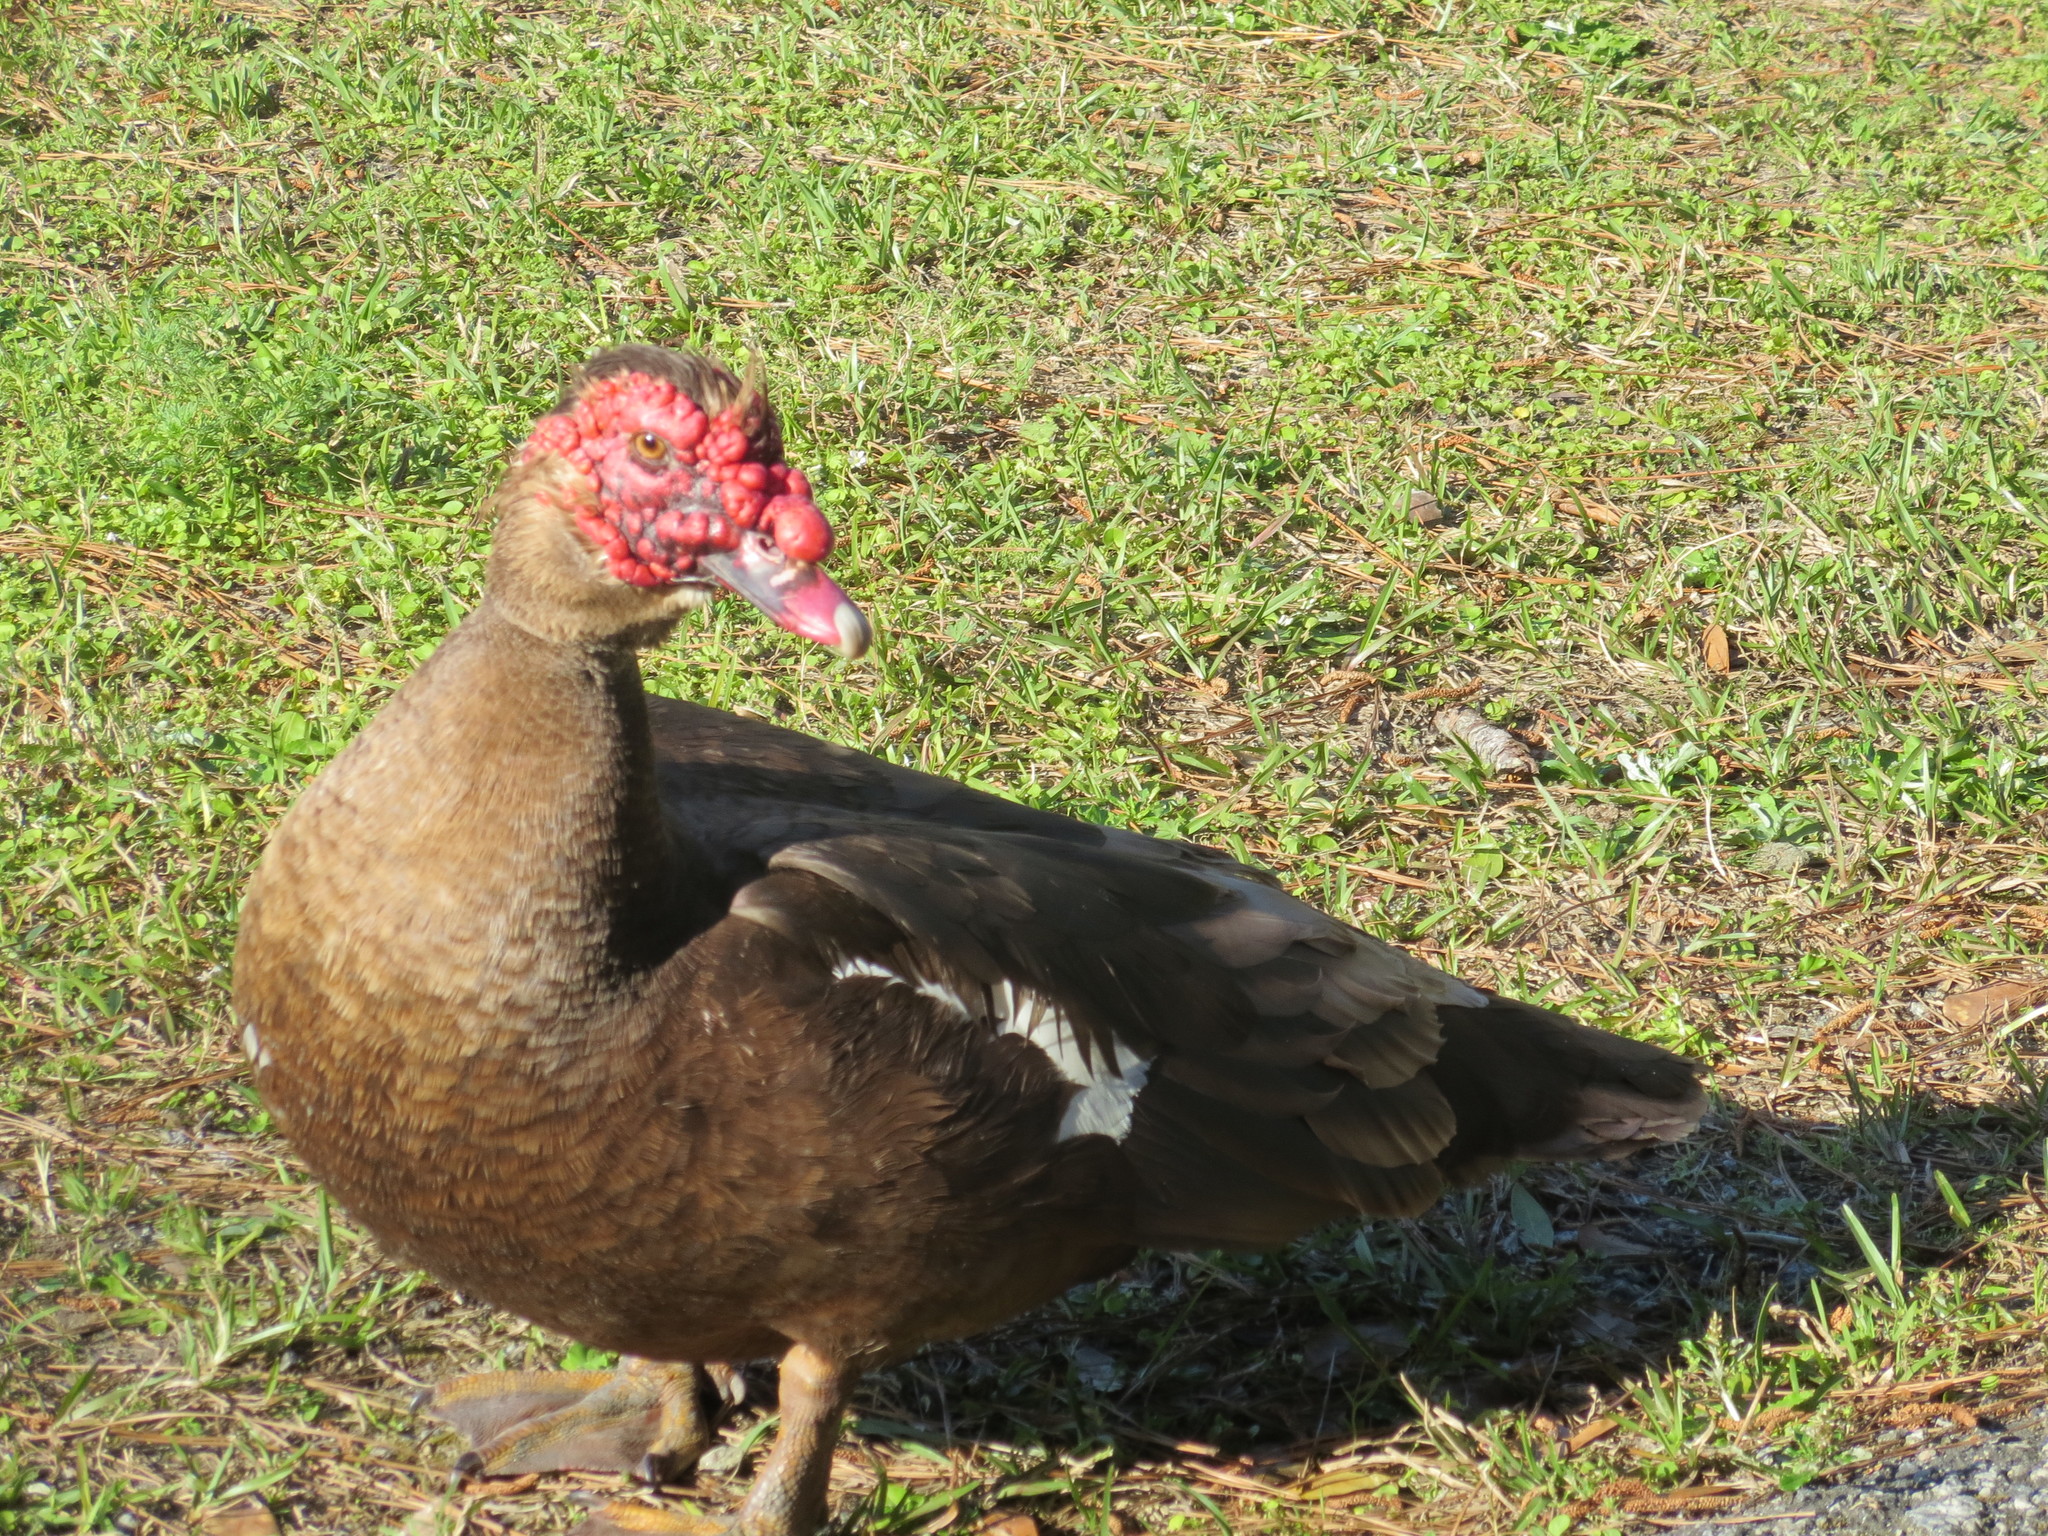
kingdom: Animalia
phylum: Chordata
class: Aves
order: Anseriformes
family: Anatidae
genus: Cairina
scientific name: Cairina moschata
